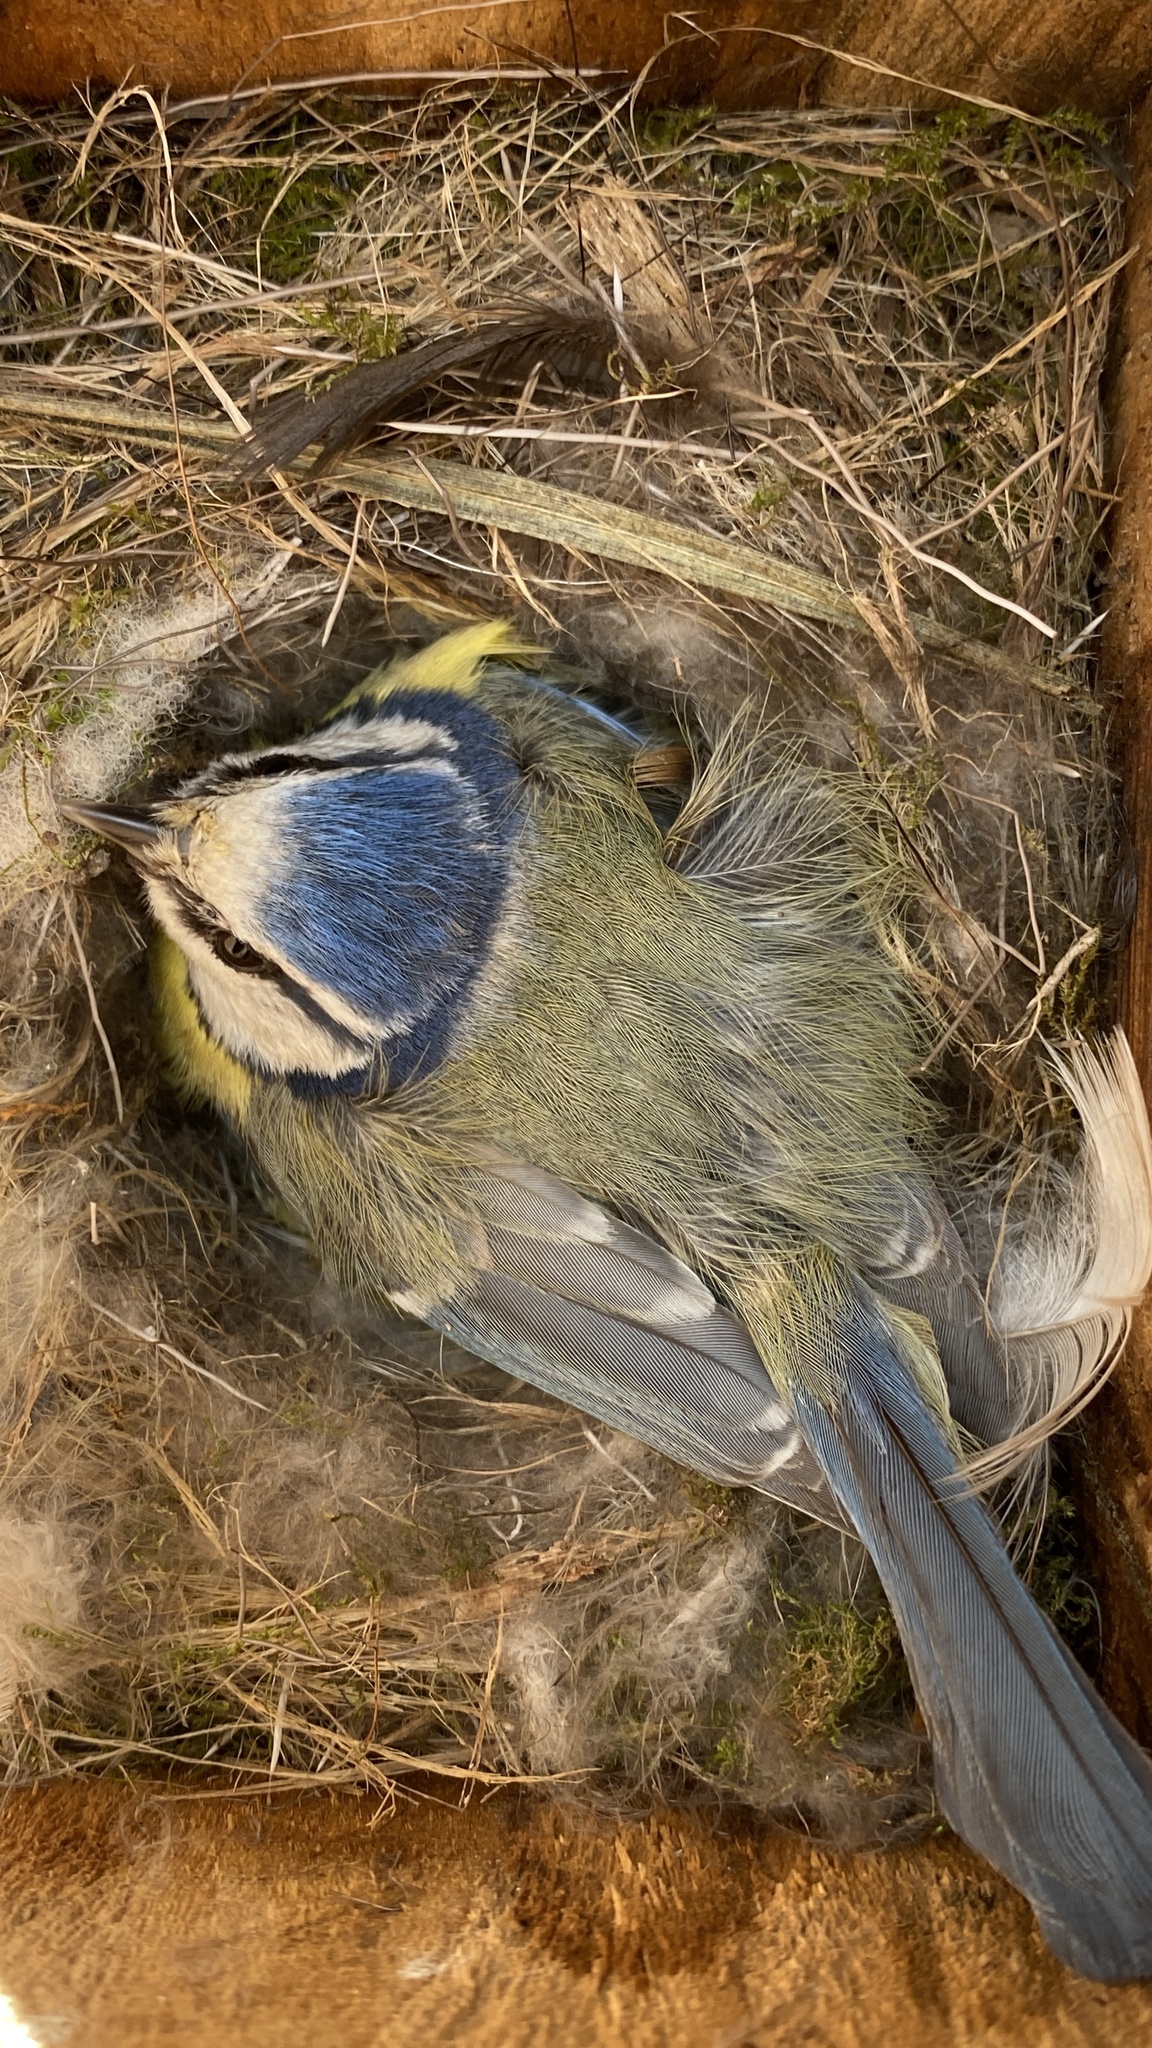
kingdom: Animalia
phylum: Chordata
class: Aves
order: Passeriformes
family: Paridae
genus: Cyanistes
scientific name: Cyanistes caeruleus
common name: Eurasian blue tit
